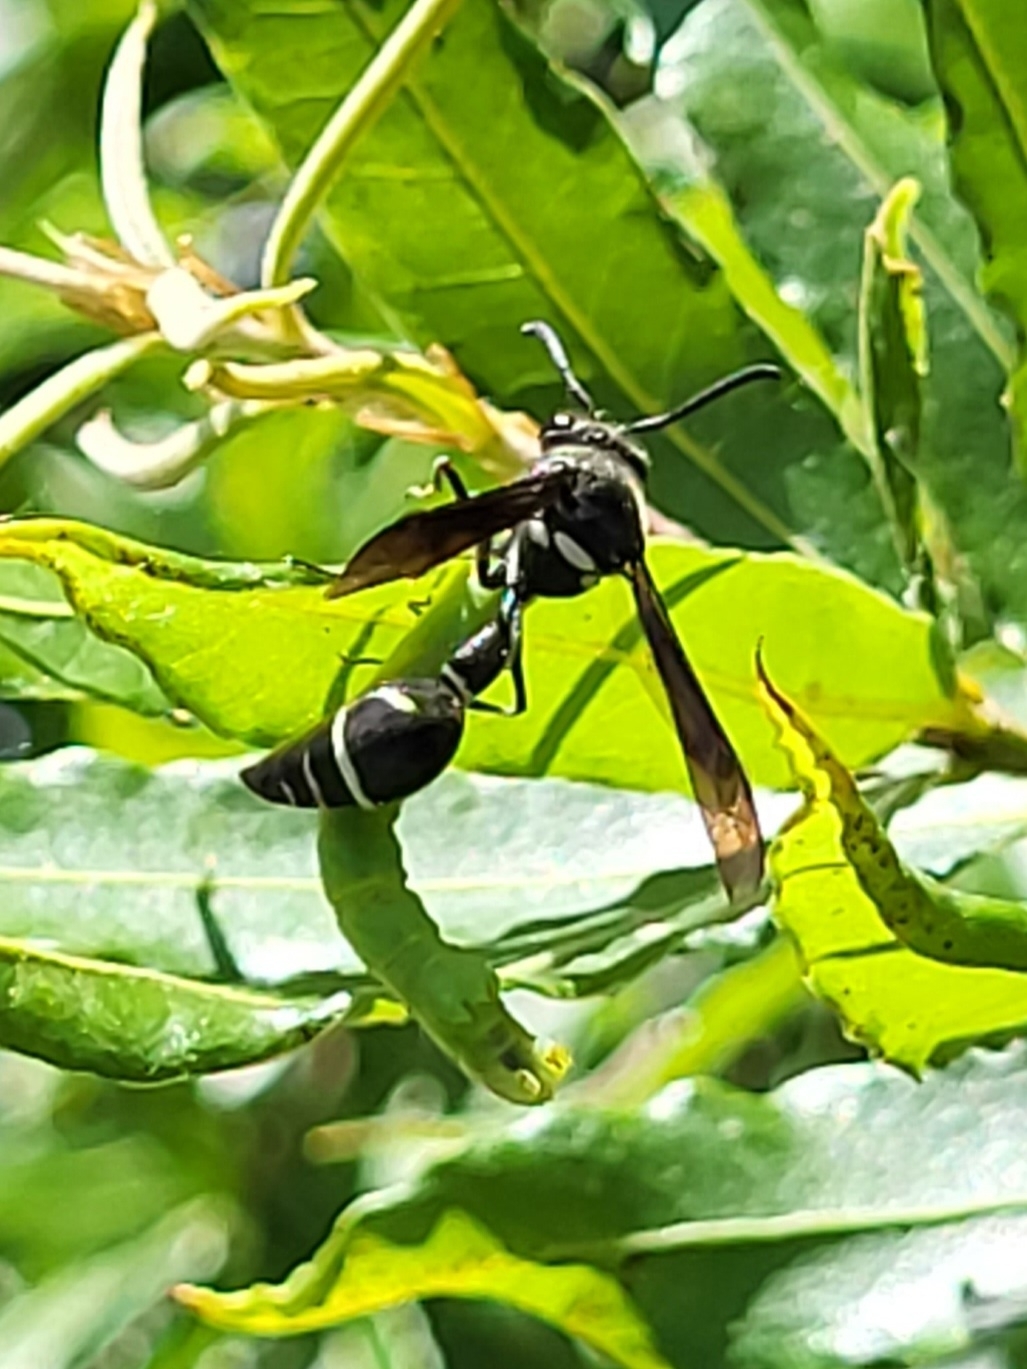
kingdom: Animalia
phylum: Arthropoda
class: Insecta
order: Hymenoptera
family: Vespidae
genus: Eumenes
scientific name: Eumenes fraternus
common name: Fraternal potter wasp
